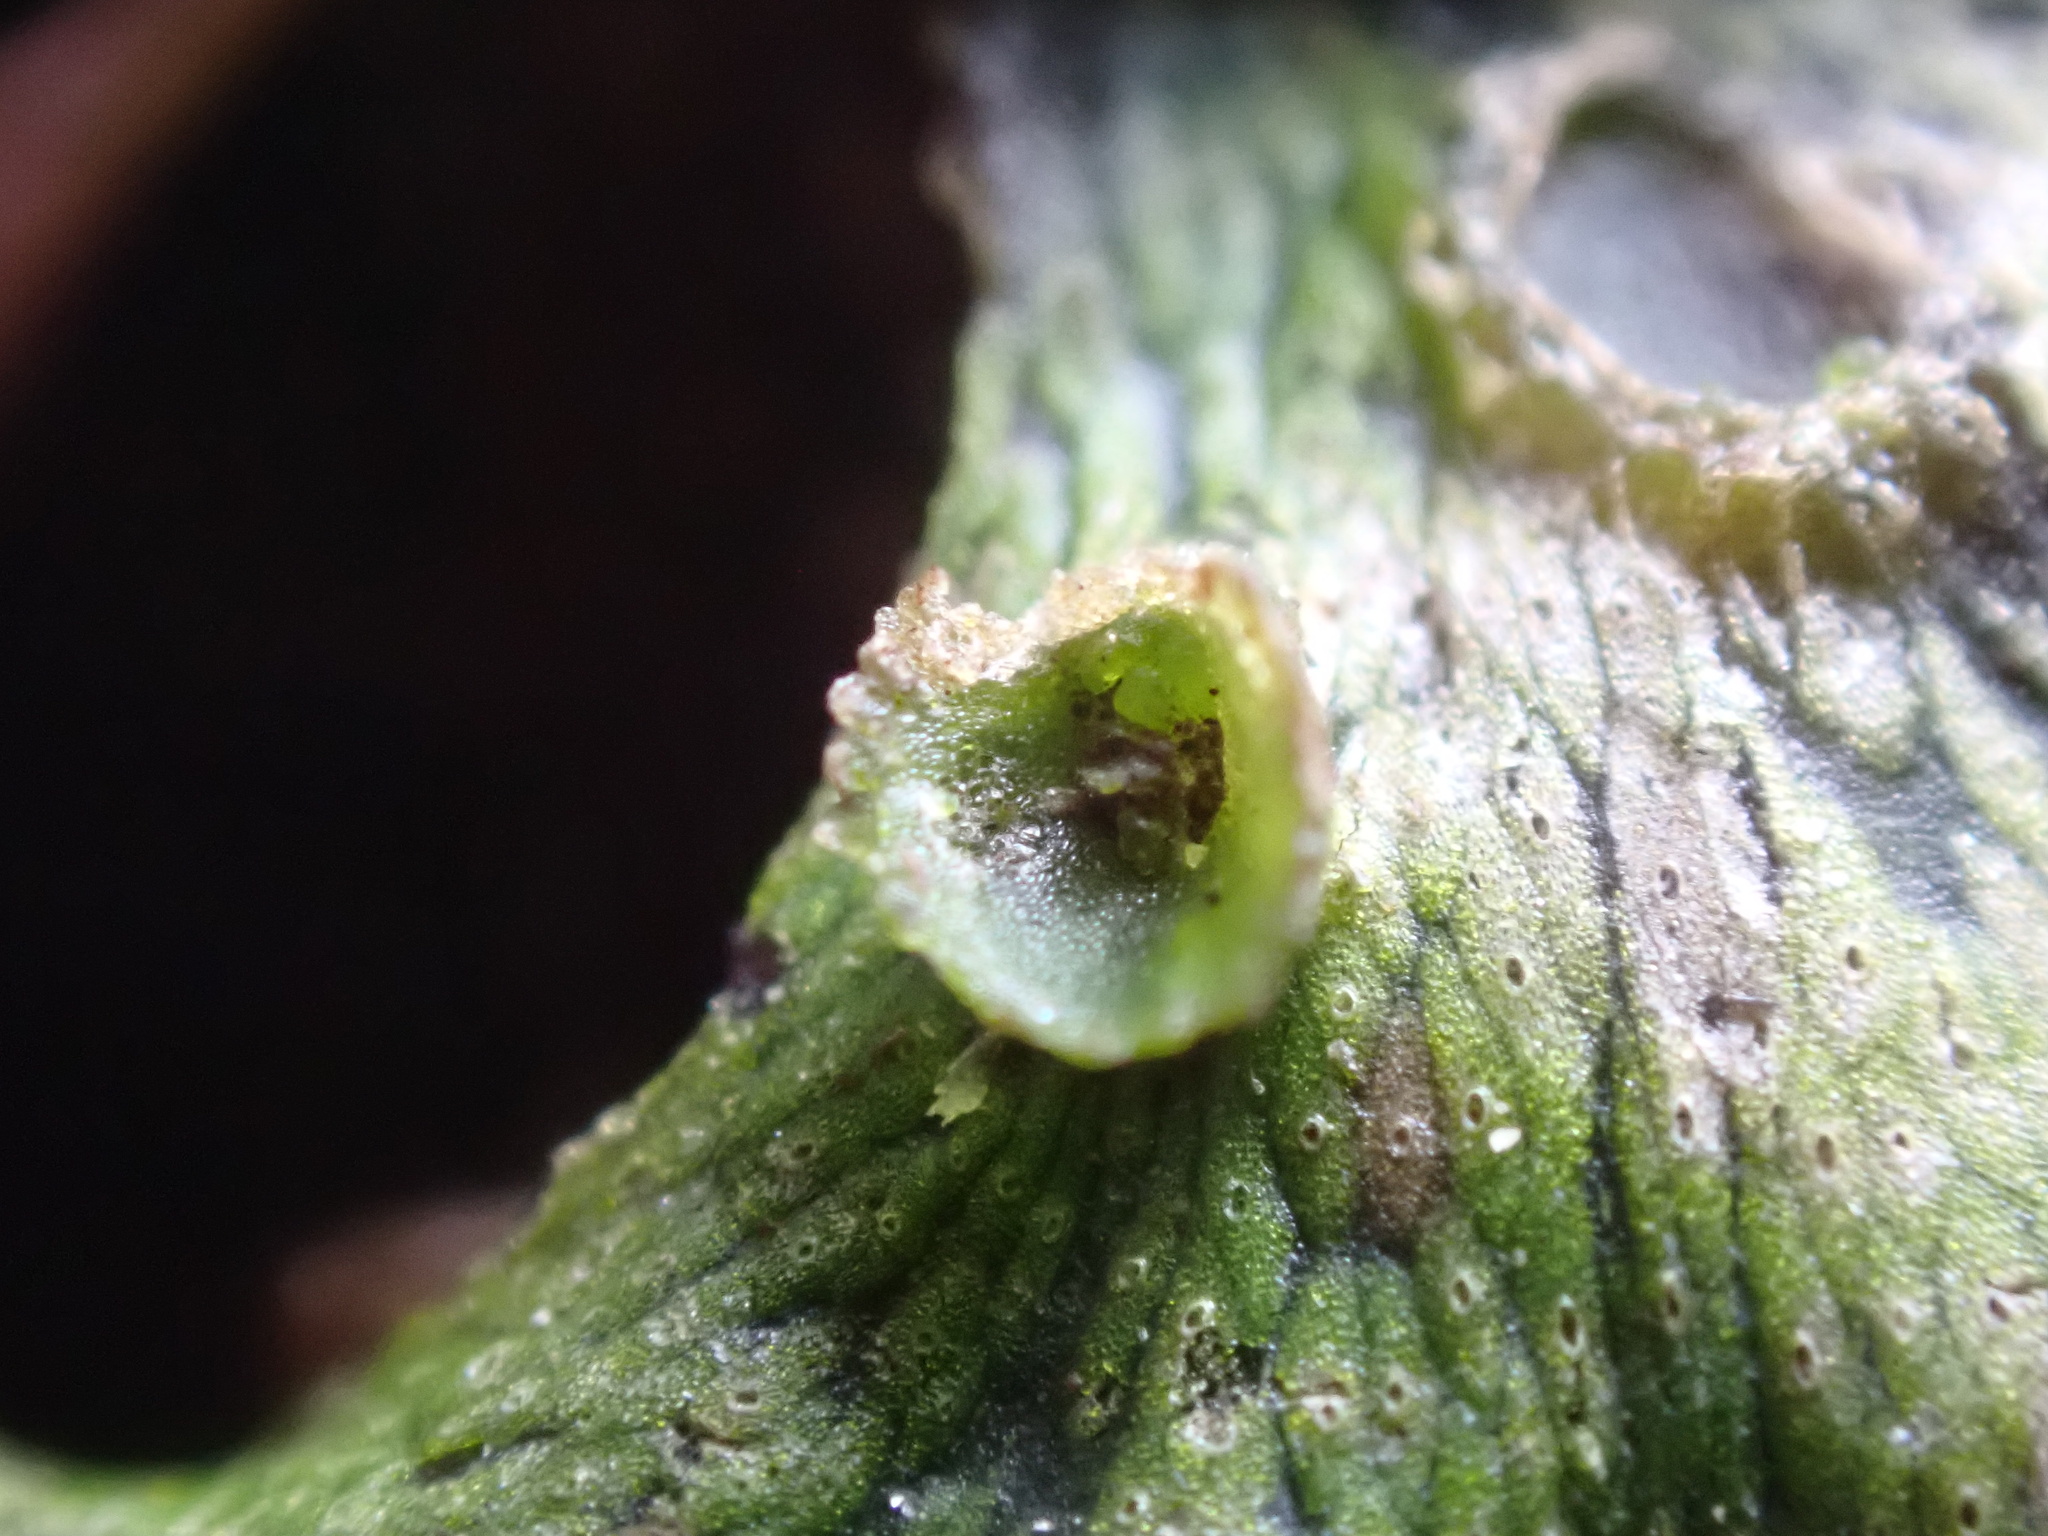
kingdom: Plantae
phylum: Marchantiophyta
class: Marchantiopsida
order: Marchantiales
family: Marchantiaceae
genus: Marchantia
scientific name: Marchantia polymorpha
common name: Common liverwort
